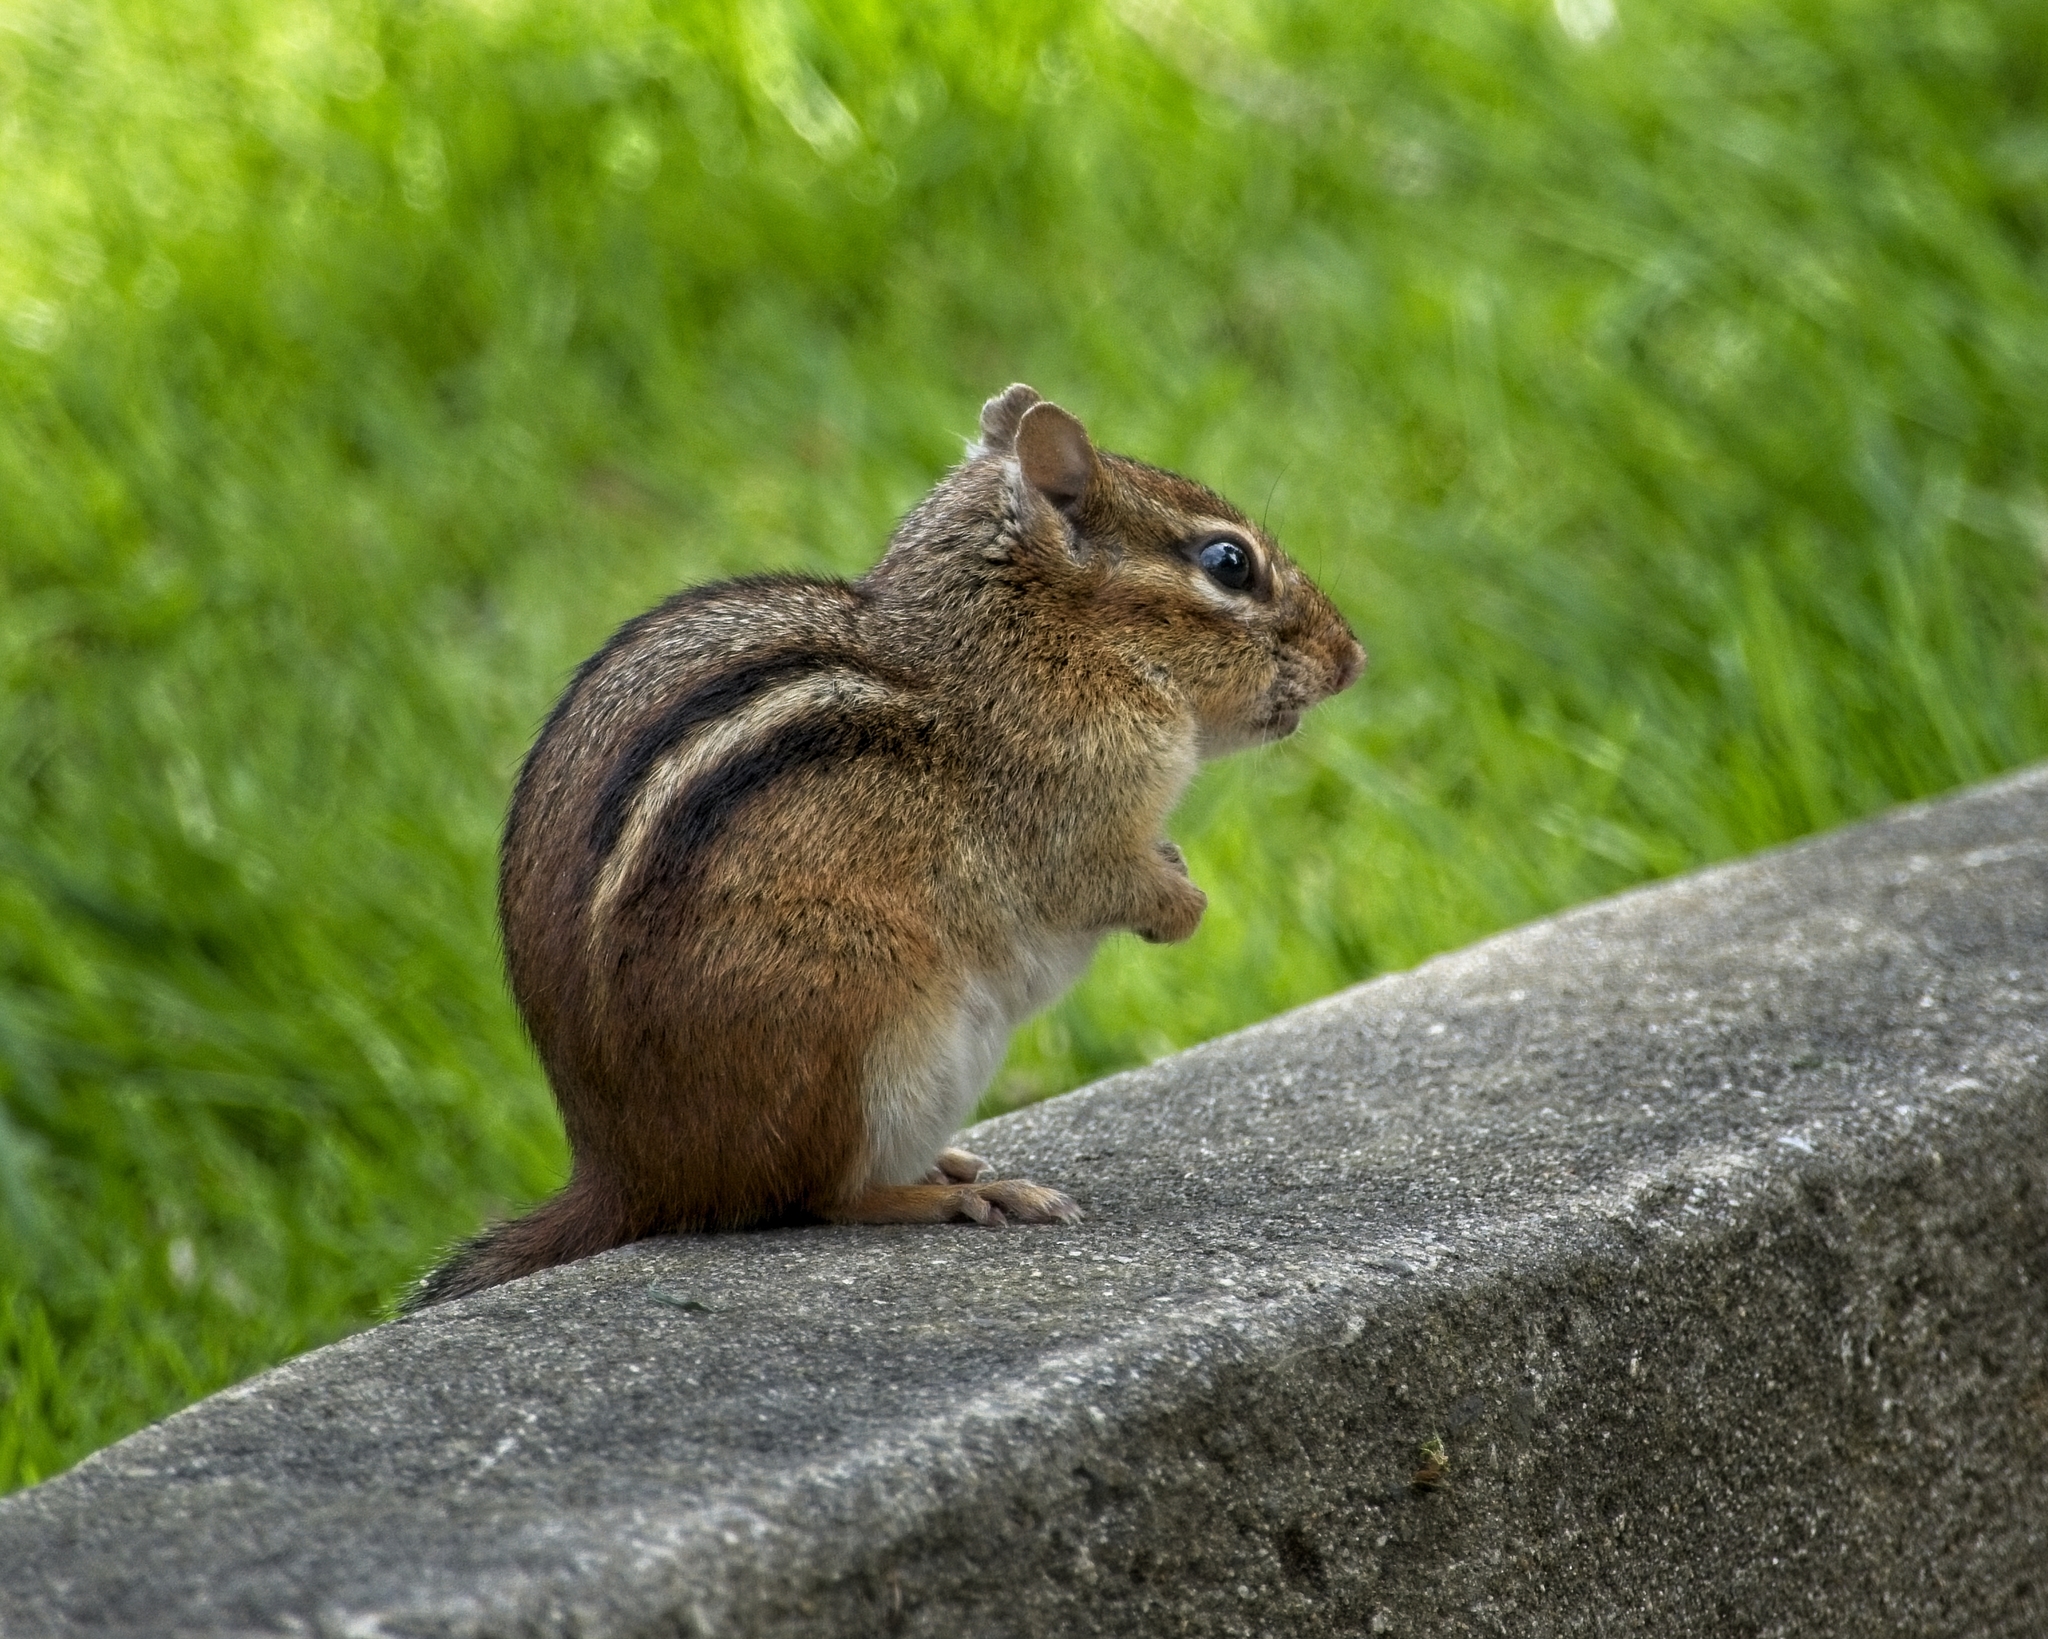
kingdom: Animalia
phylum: Chordata
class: Mammalia
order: Rodentia
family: Sciuridae
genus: Tamias
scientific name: Tamias striatus
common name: Eastern chipmunk
